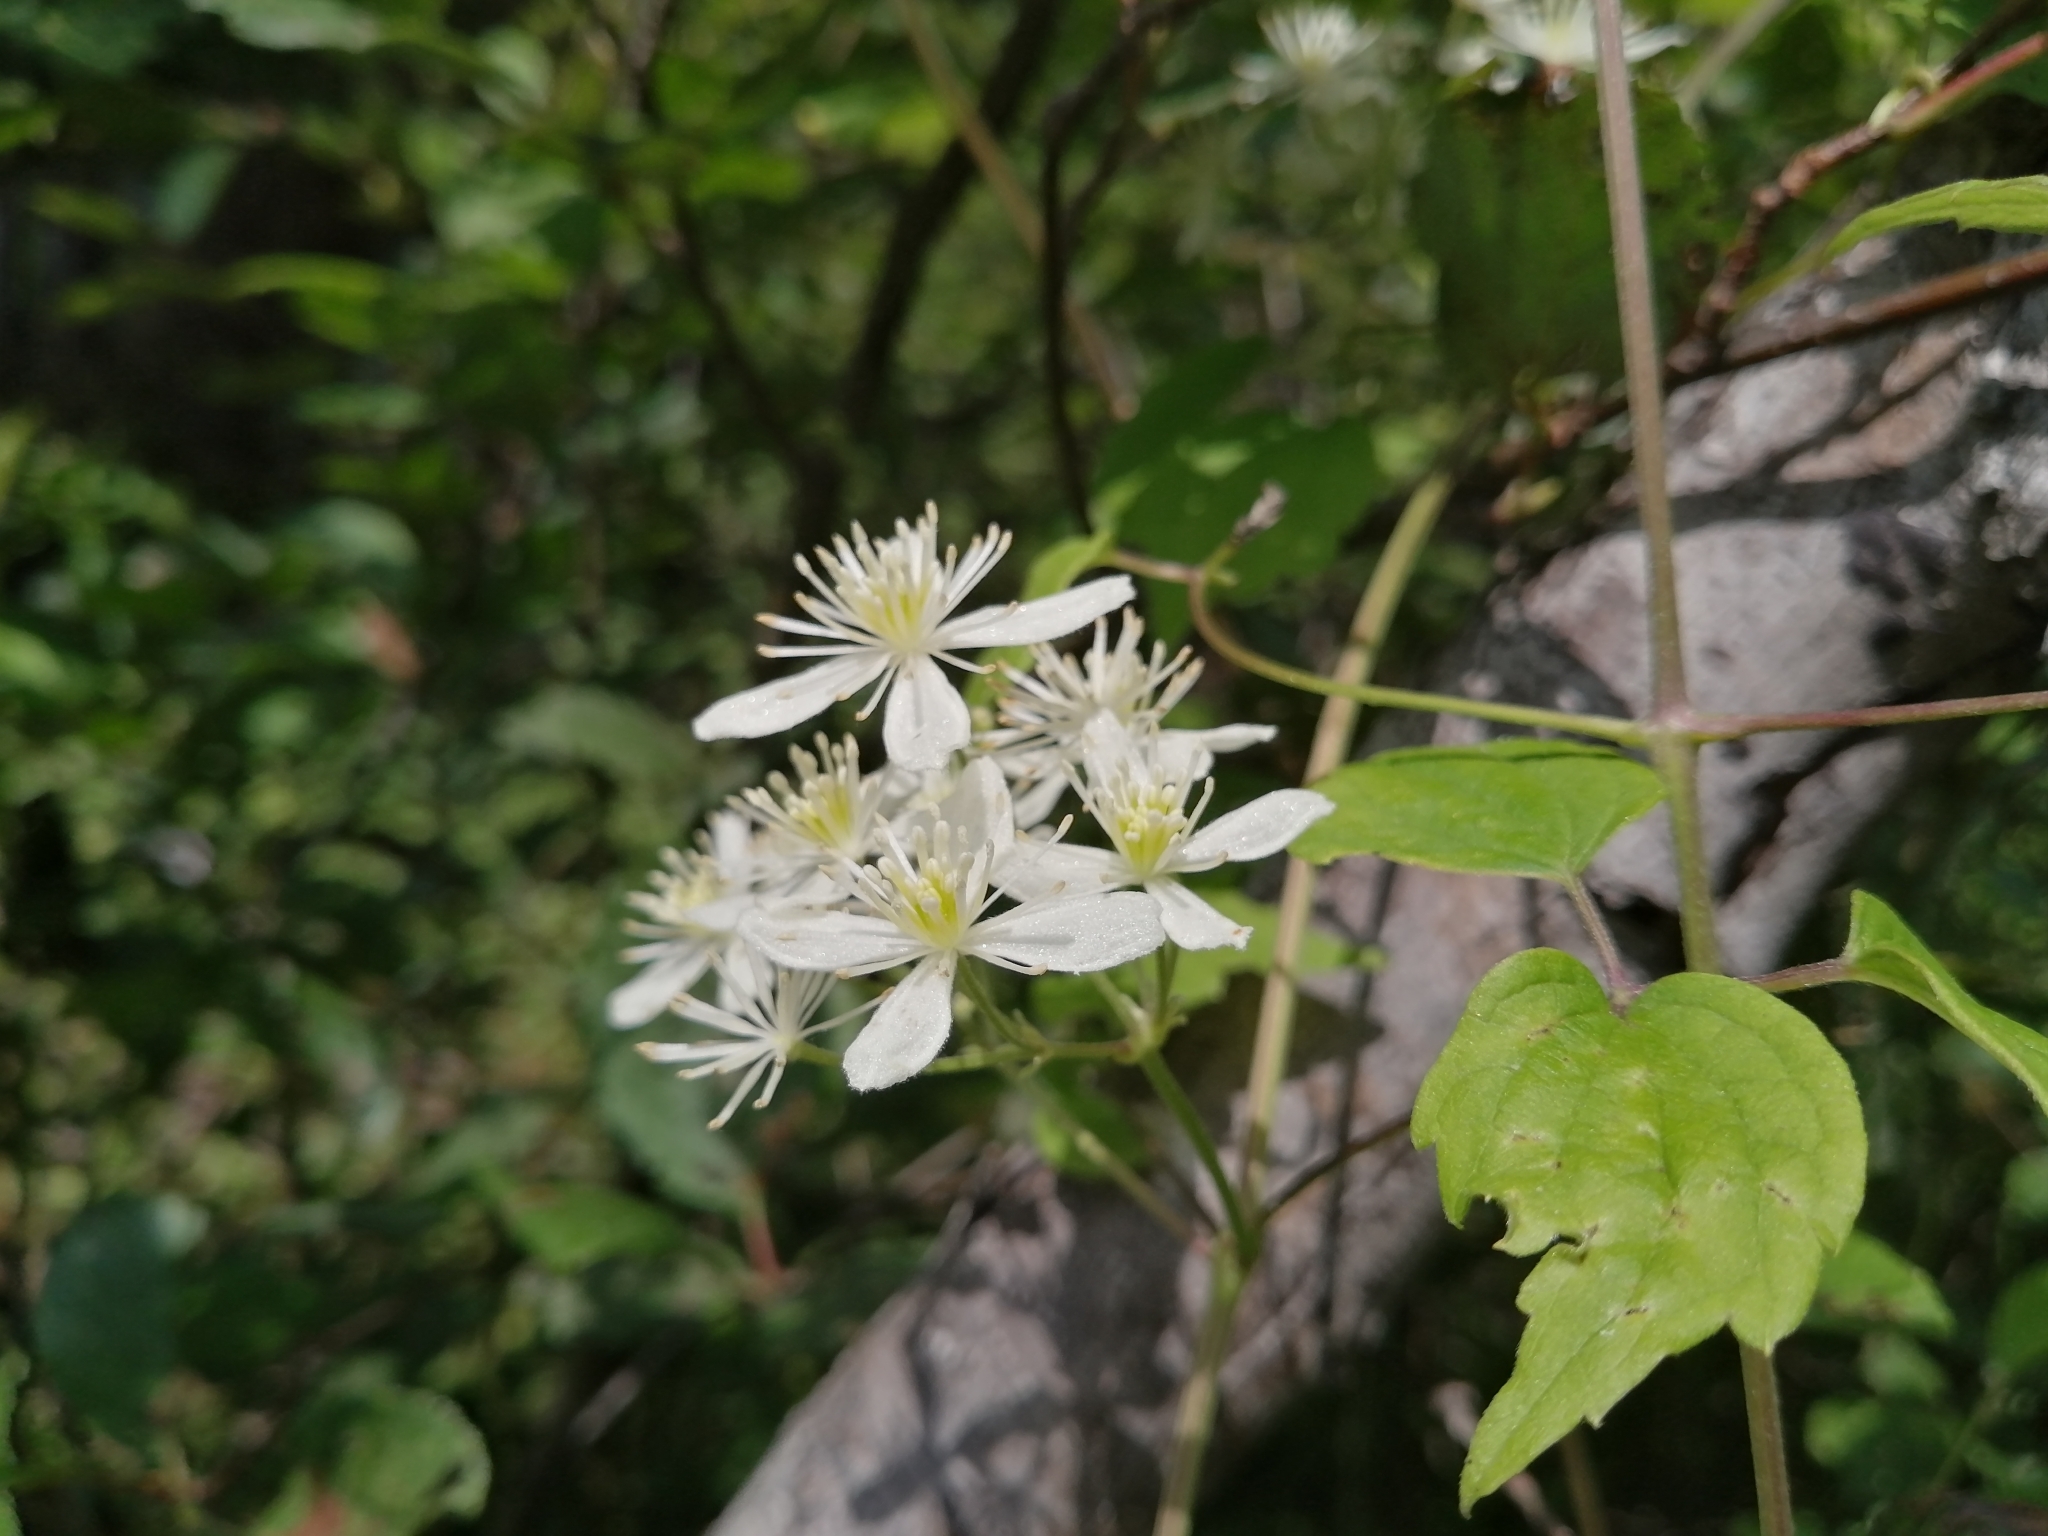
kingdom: Plantae
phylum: Tracheophyta
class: Magnoliopsida
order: Ranunculales
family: Ranunculaceae
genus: Clematis
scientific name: Clematis virginiana
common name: Virgin's-bower
